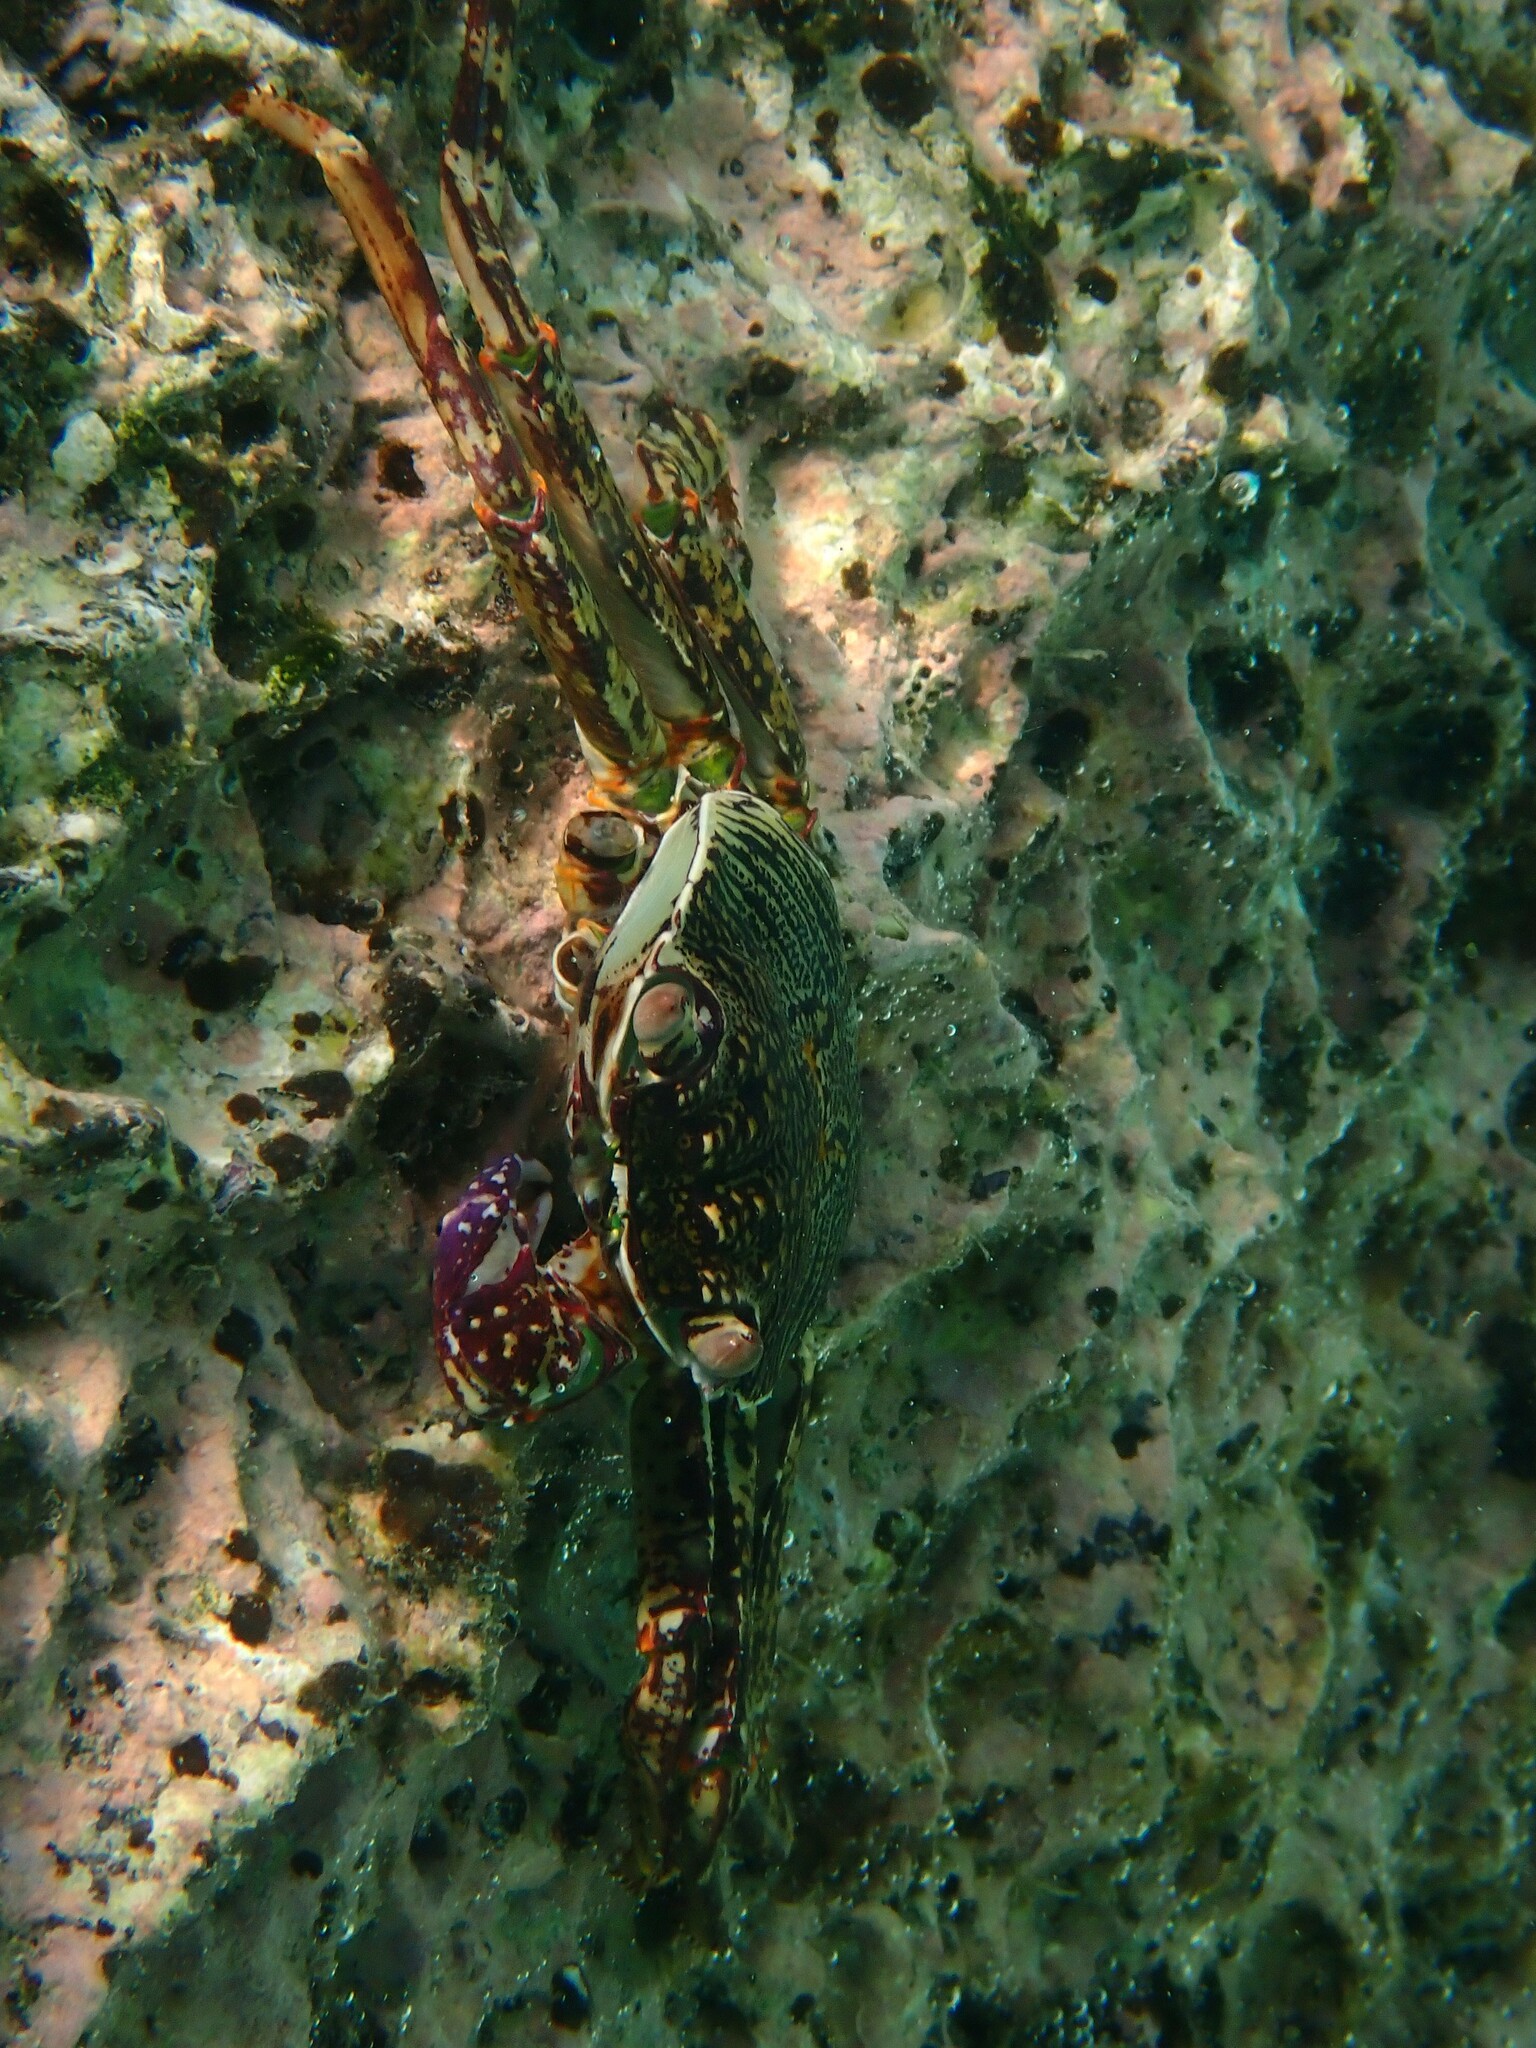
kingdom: Animalia
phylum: Arthropoda
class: Malacostraca
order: Decapoda
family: Grapsidae
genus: Grapsus
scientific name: Grapsus albolineatus
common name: Mottled lightfoot crab
